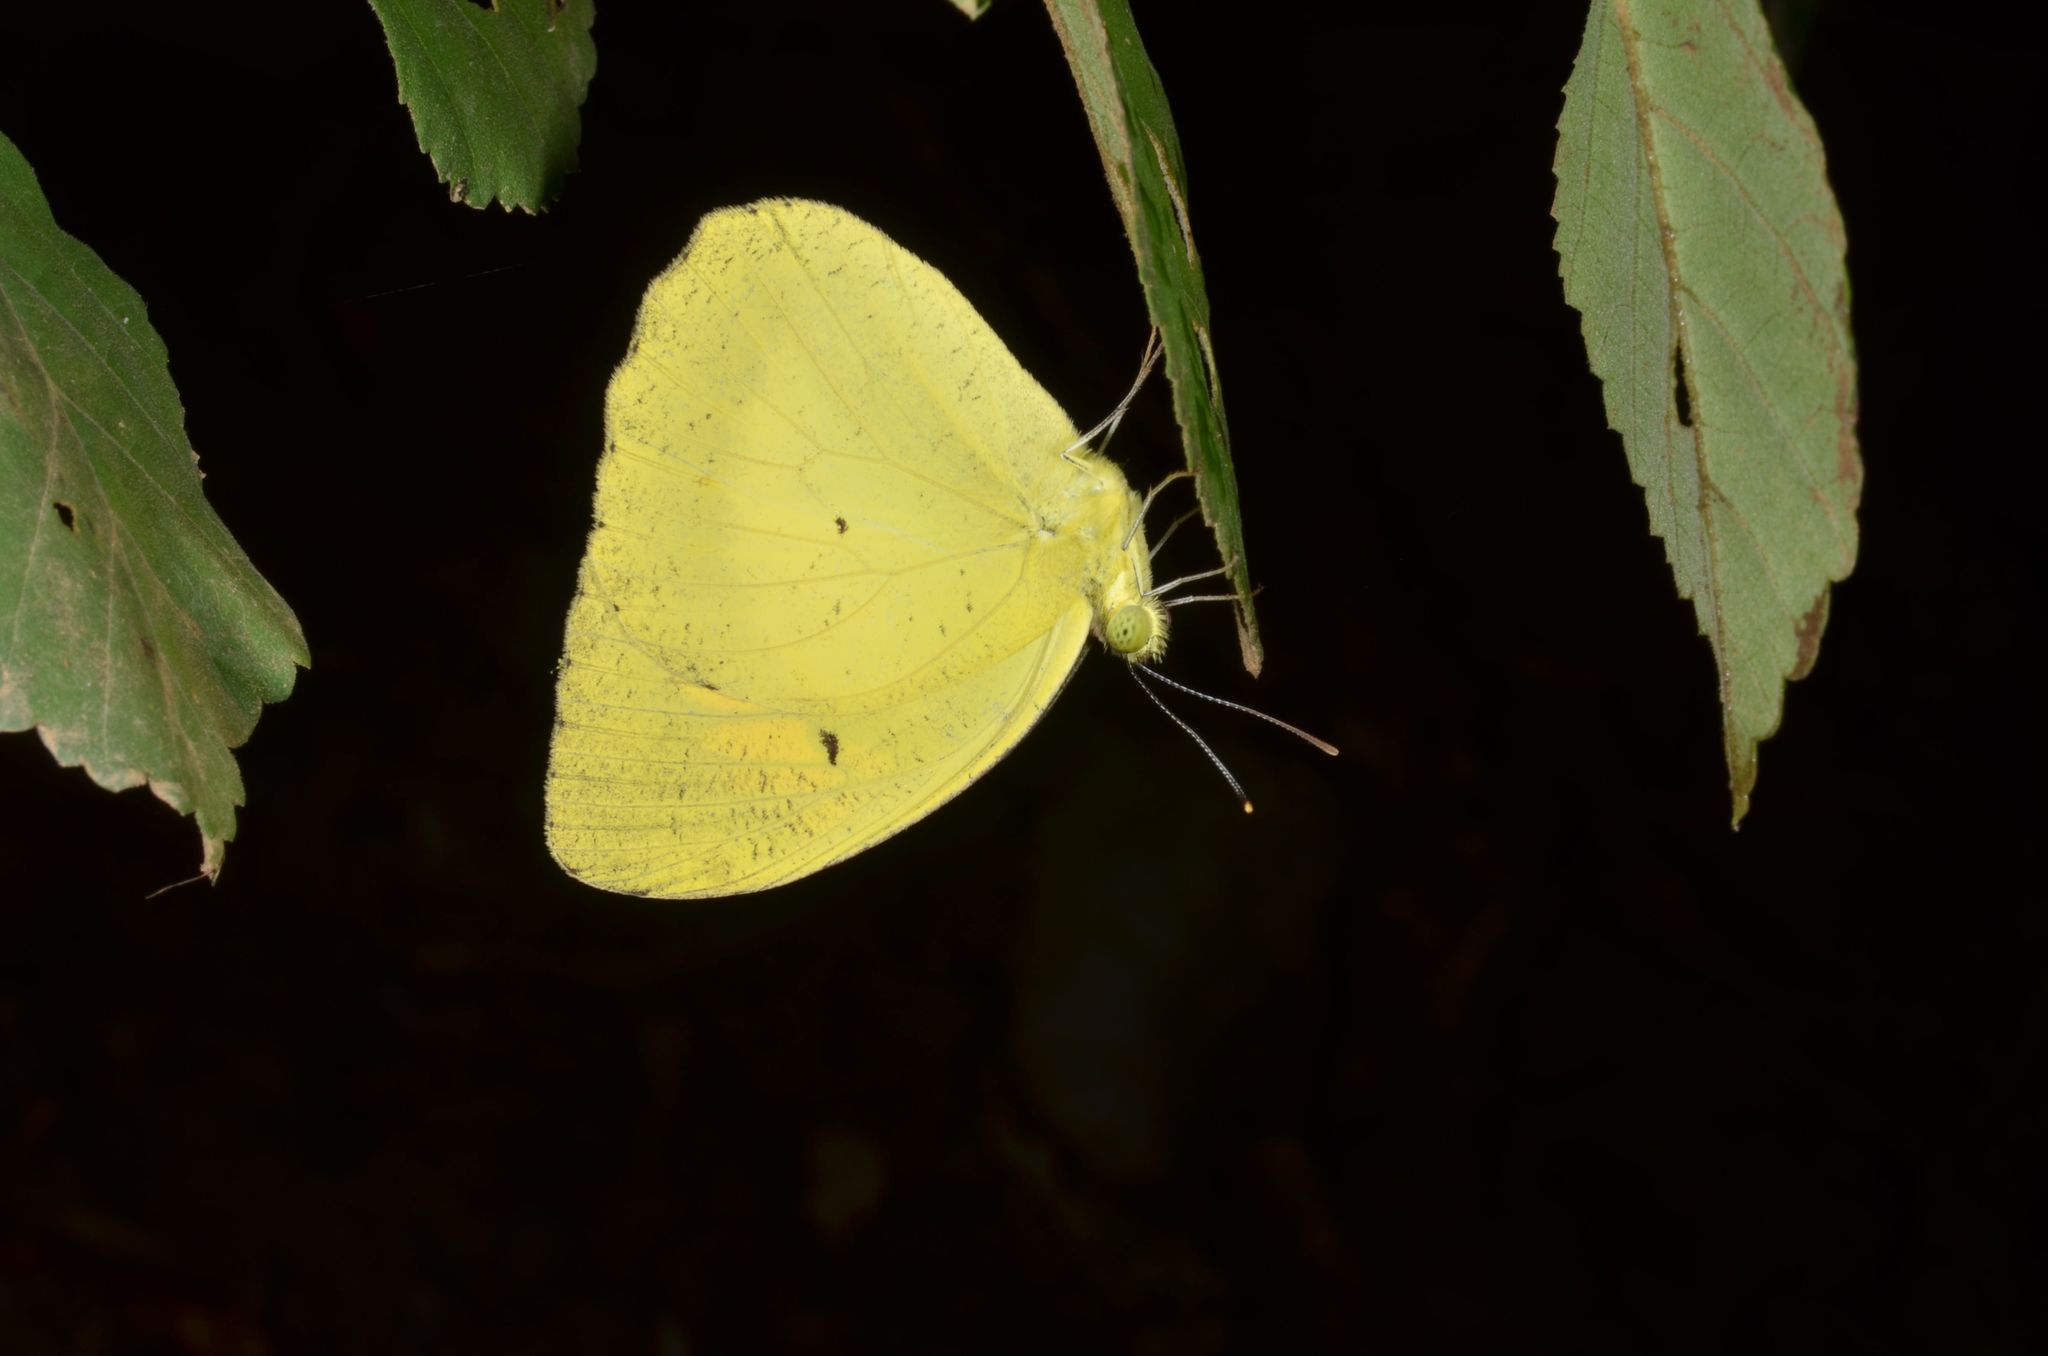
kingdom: Animalia
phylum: Arthropoda
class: Insecta
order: Lepidoptera
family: Pieridae
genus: Ixias
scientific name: Ixias pyrene
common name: Yellow orange tip
